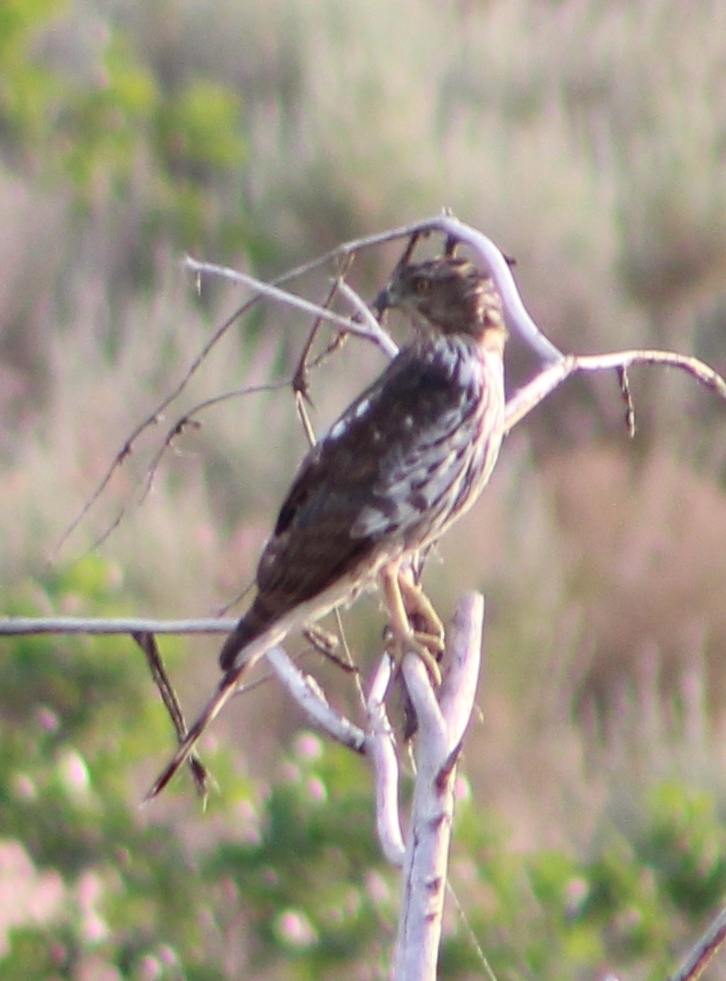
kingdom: Animalia
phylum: Chordata
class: Aves
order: Accipitriformes
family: Accipitridae
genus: Accipiter
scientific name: Accipiter cooperii
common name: Cooper's hawk
